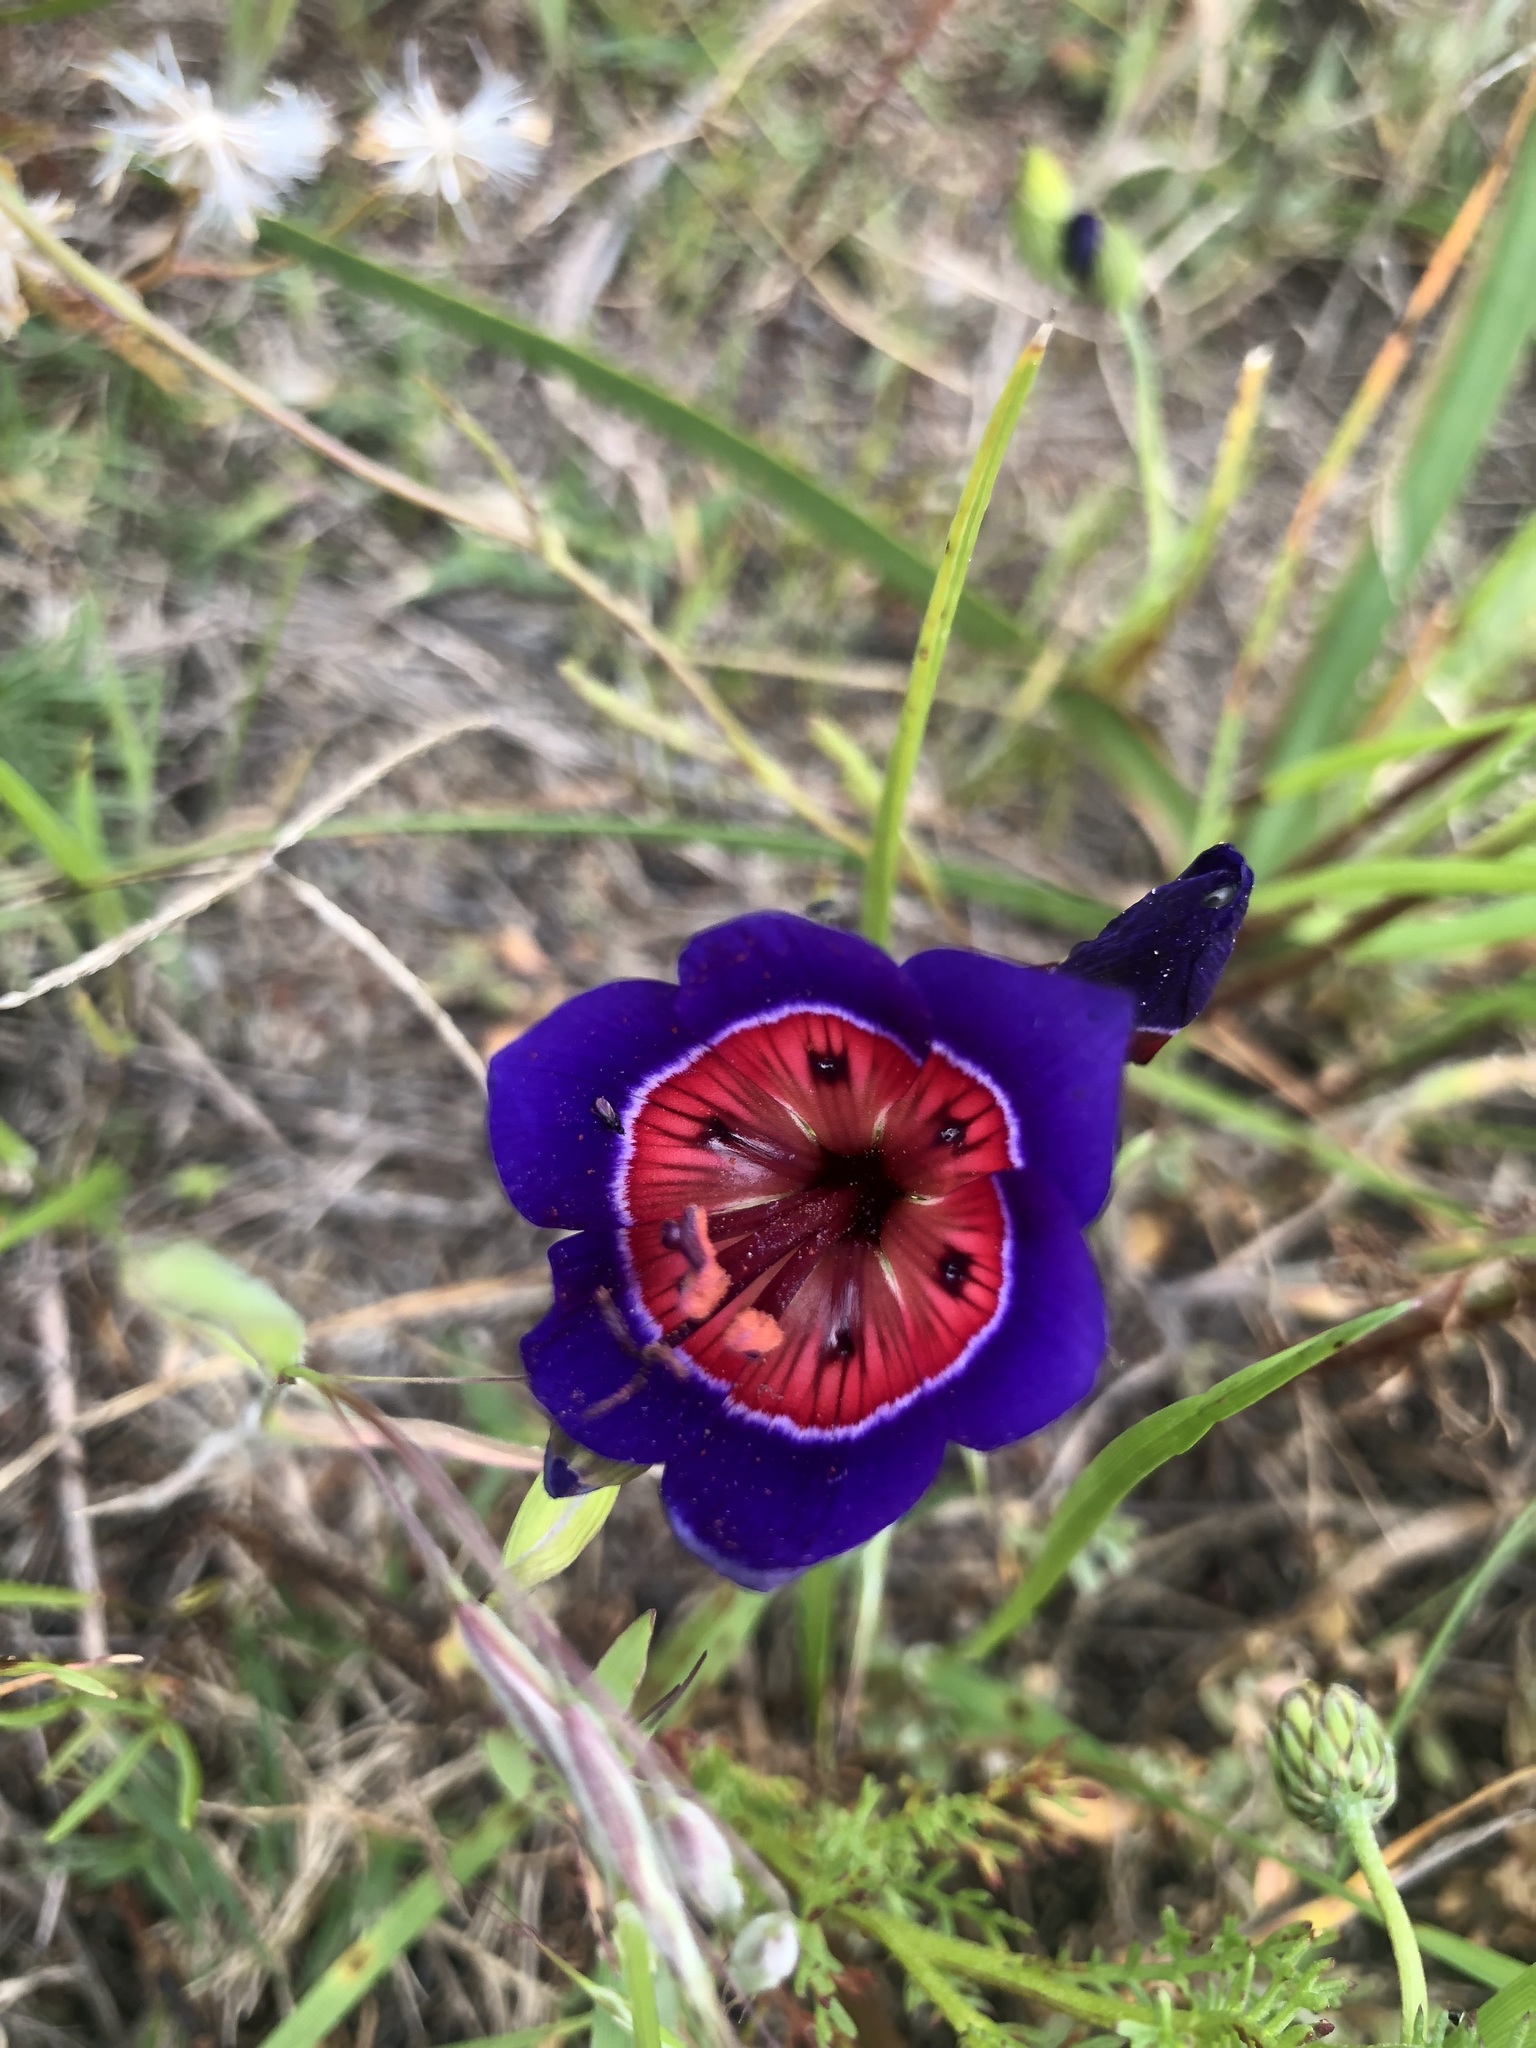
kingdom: Plantae
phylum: Tracheophyta
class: Liliopsida
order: Asparagales
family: Iridaceae
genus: Geissorhiza
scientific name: Geissorhiza radians
